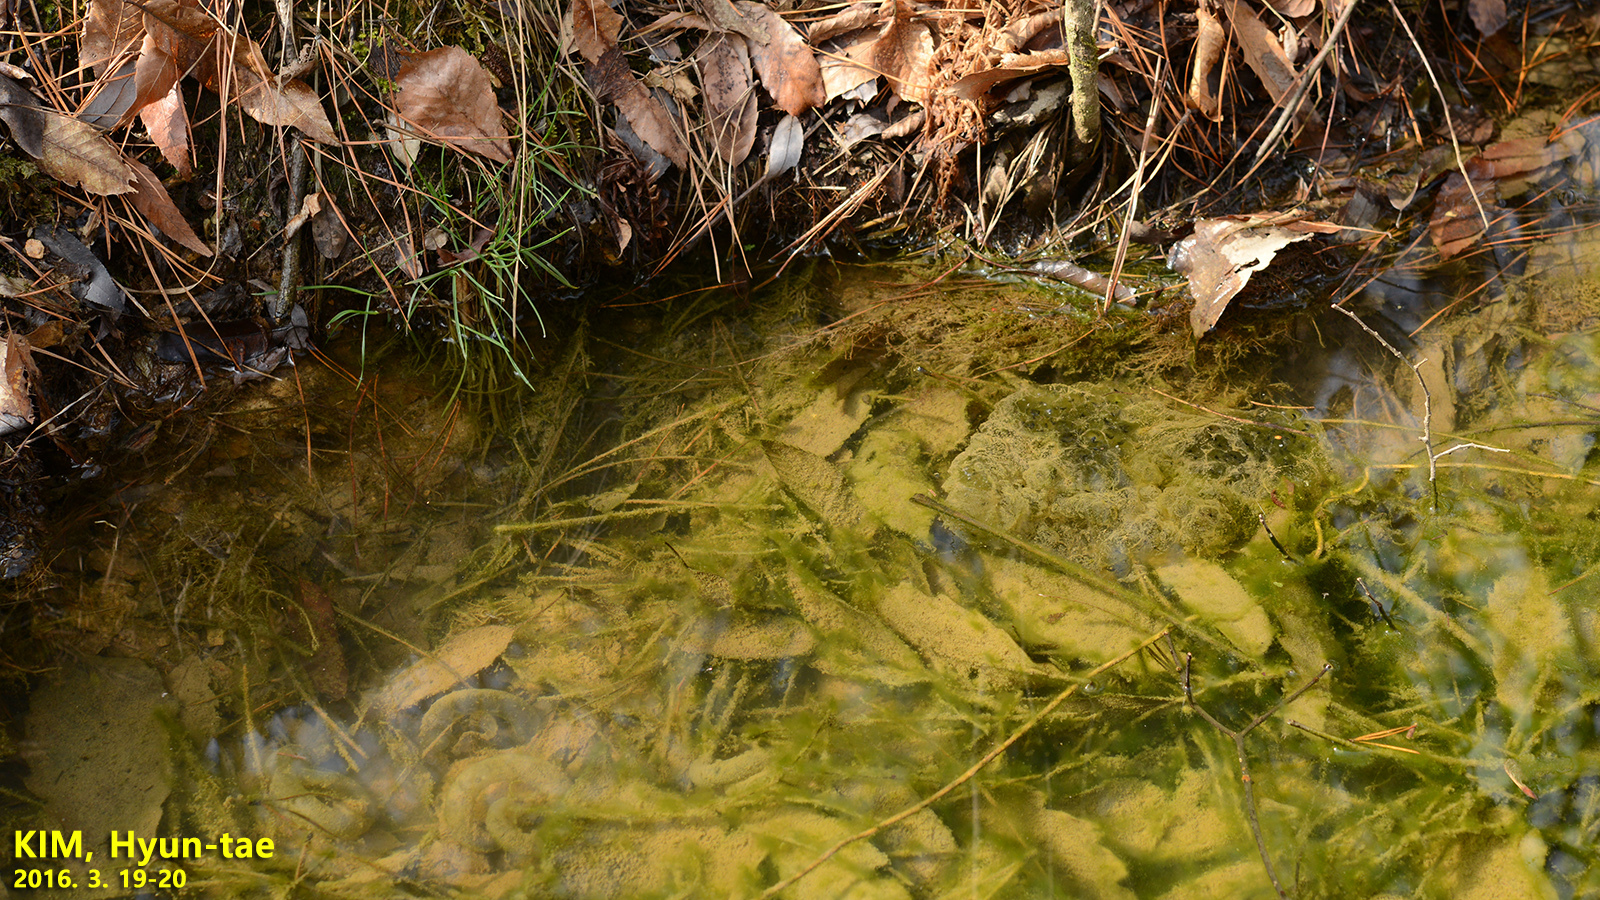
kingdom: Animalia
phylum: Chordata
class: Amphibia
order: Anura
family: Ranidae
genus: Rana
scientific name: Rana uenoi
